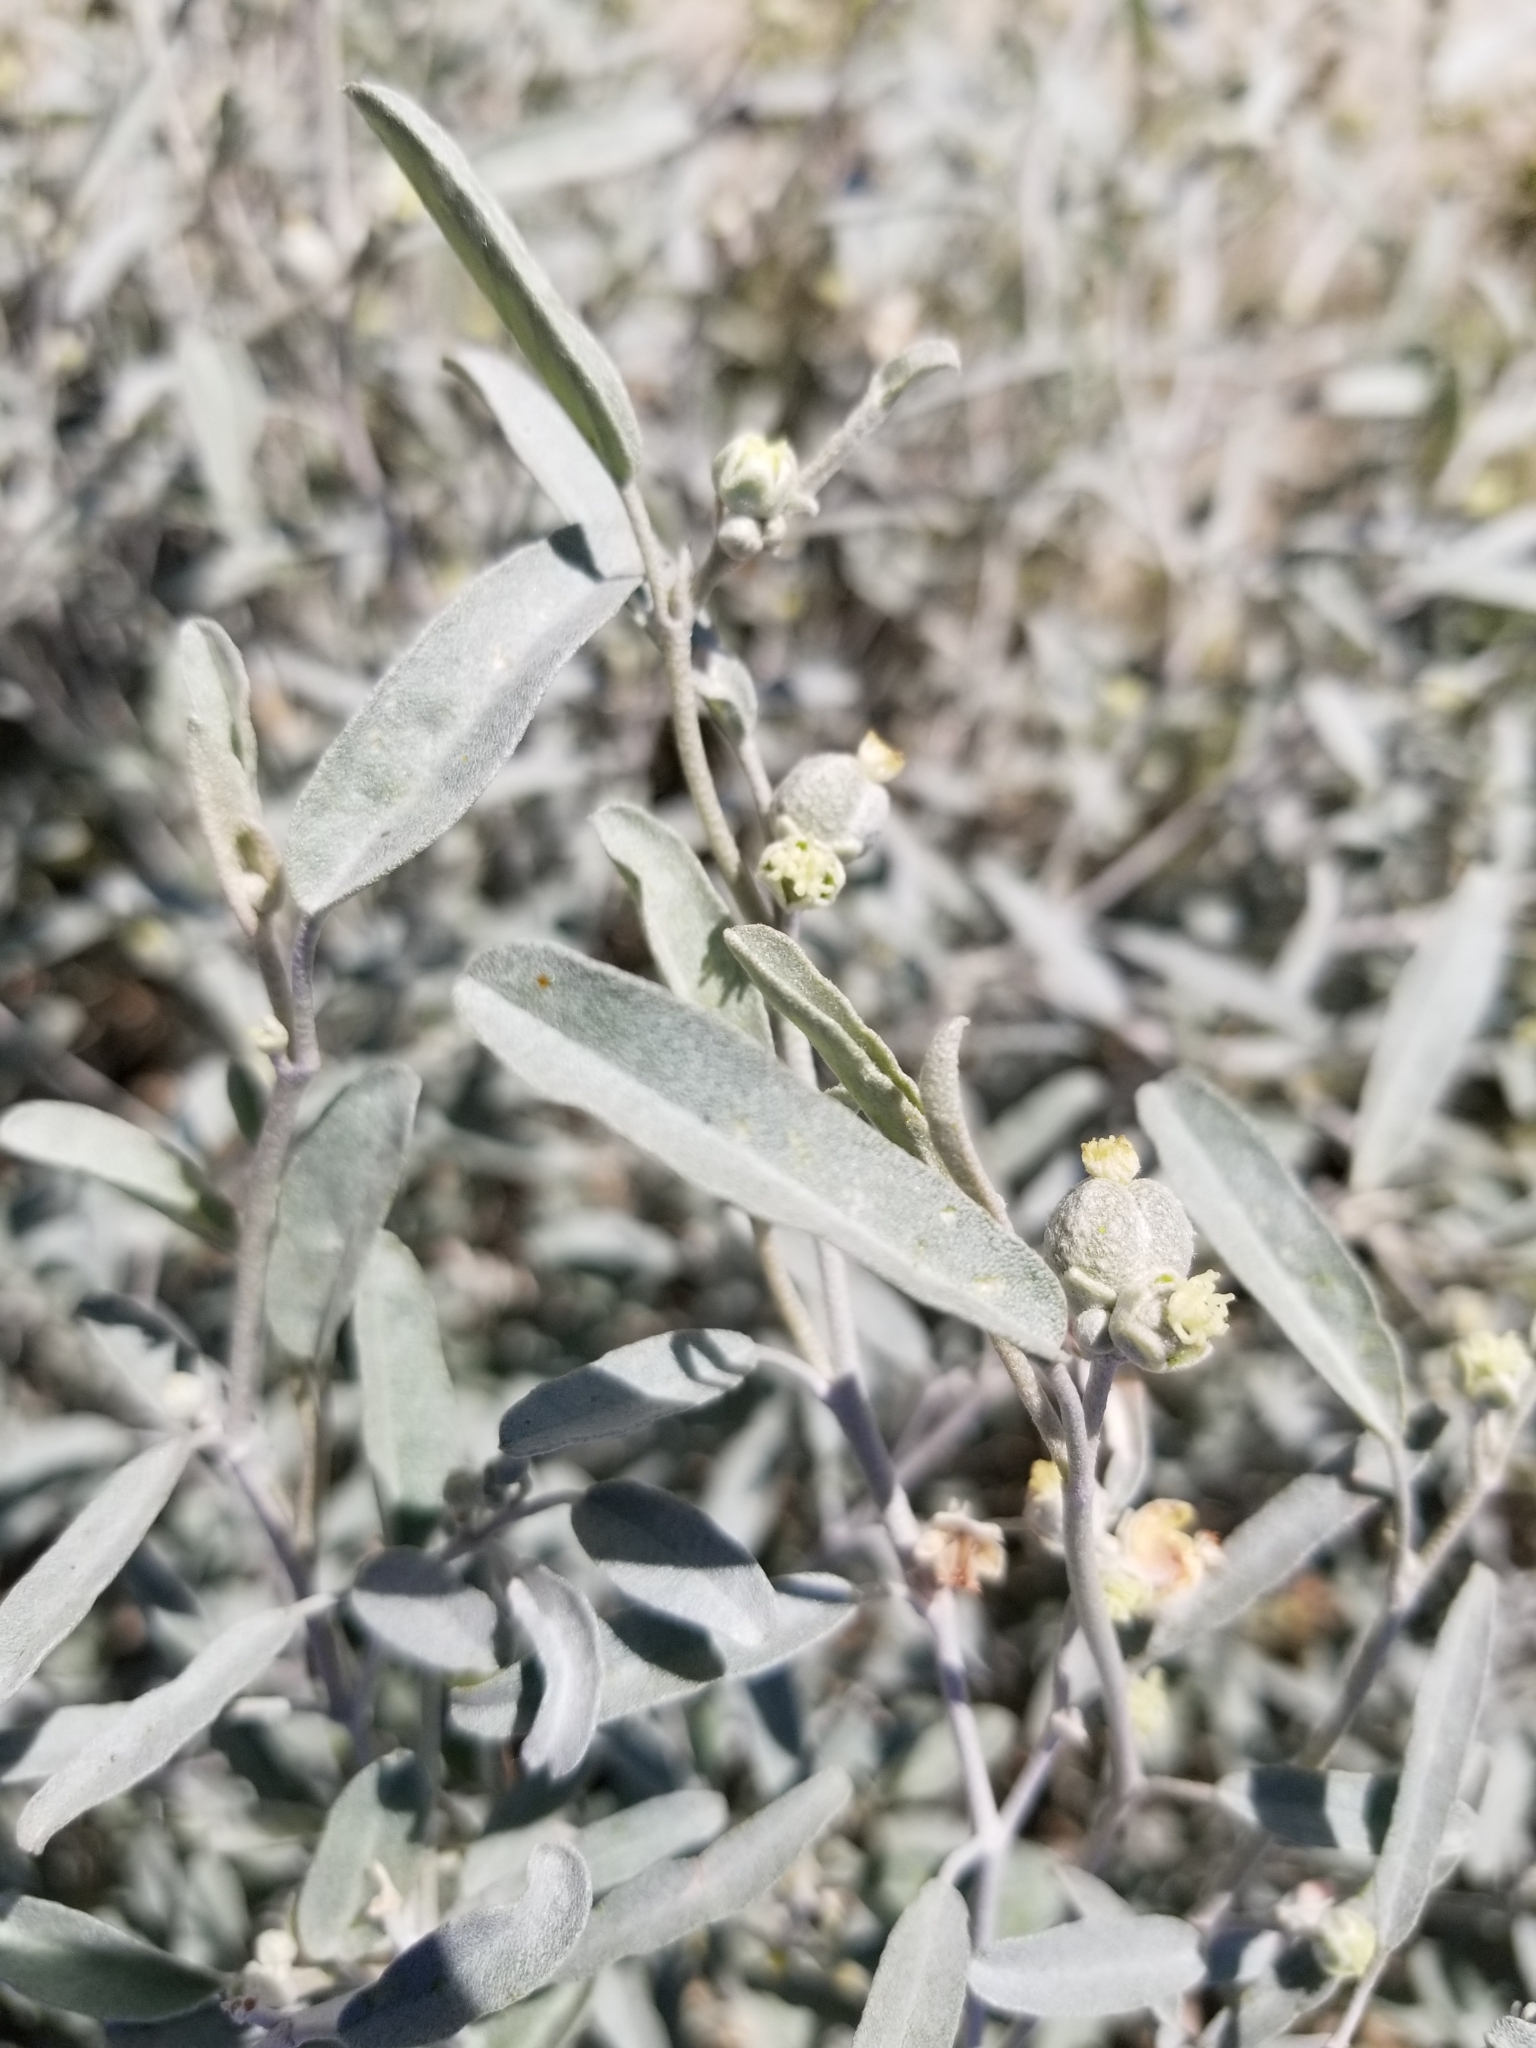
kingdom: Plantae
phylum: Tracheophyta
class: Magnoliopsida
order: Malpighiales
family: Euphorbiaceae
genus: Croton
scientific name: Croton californicus
